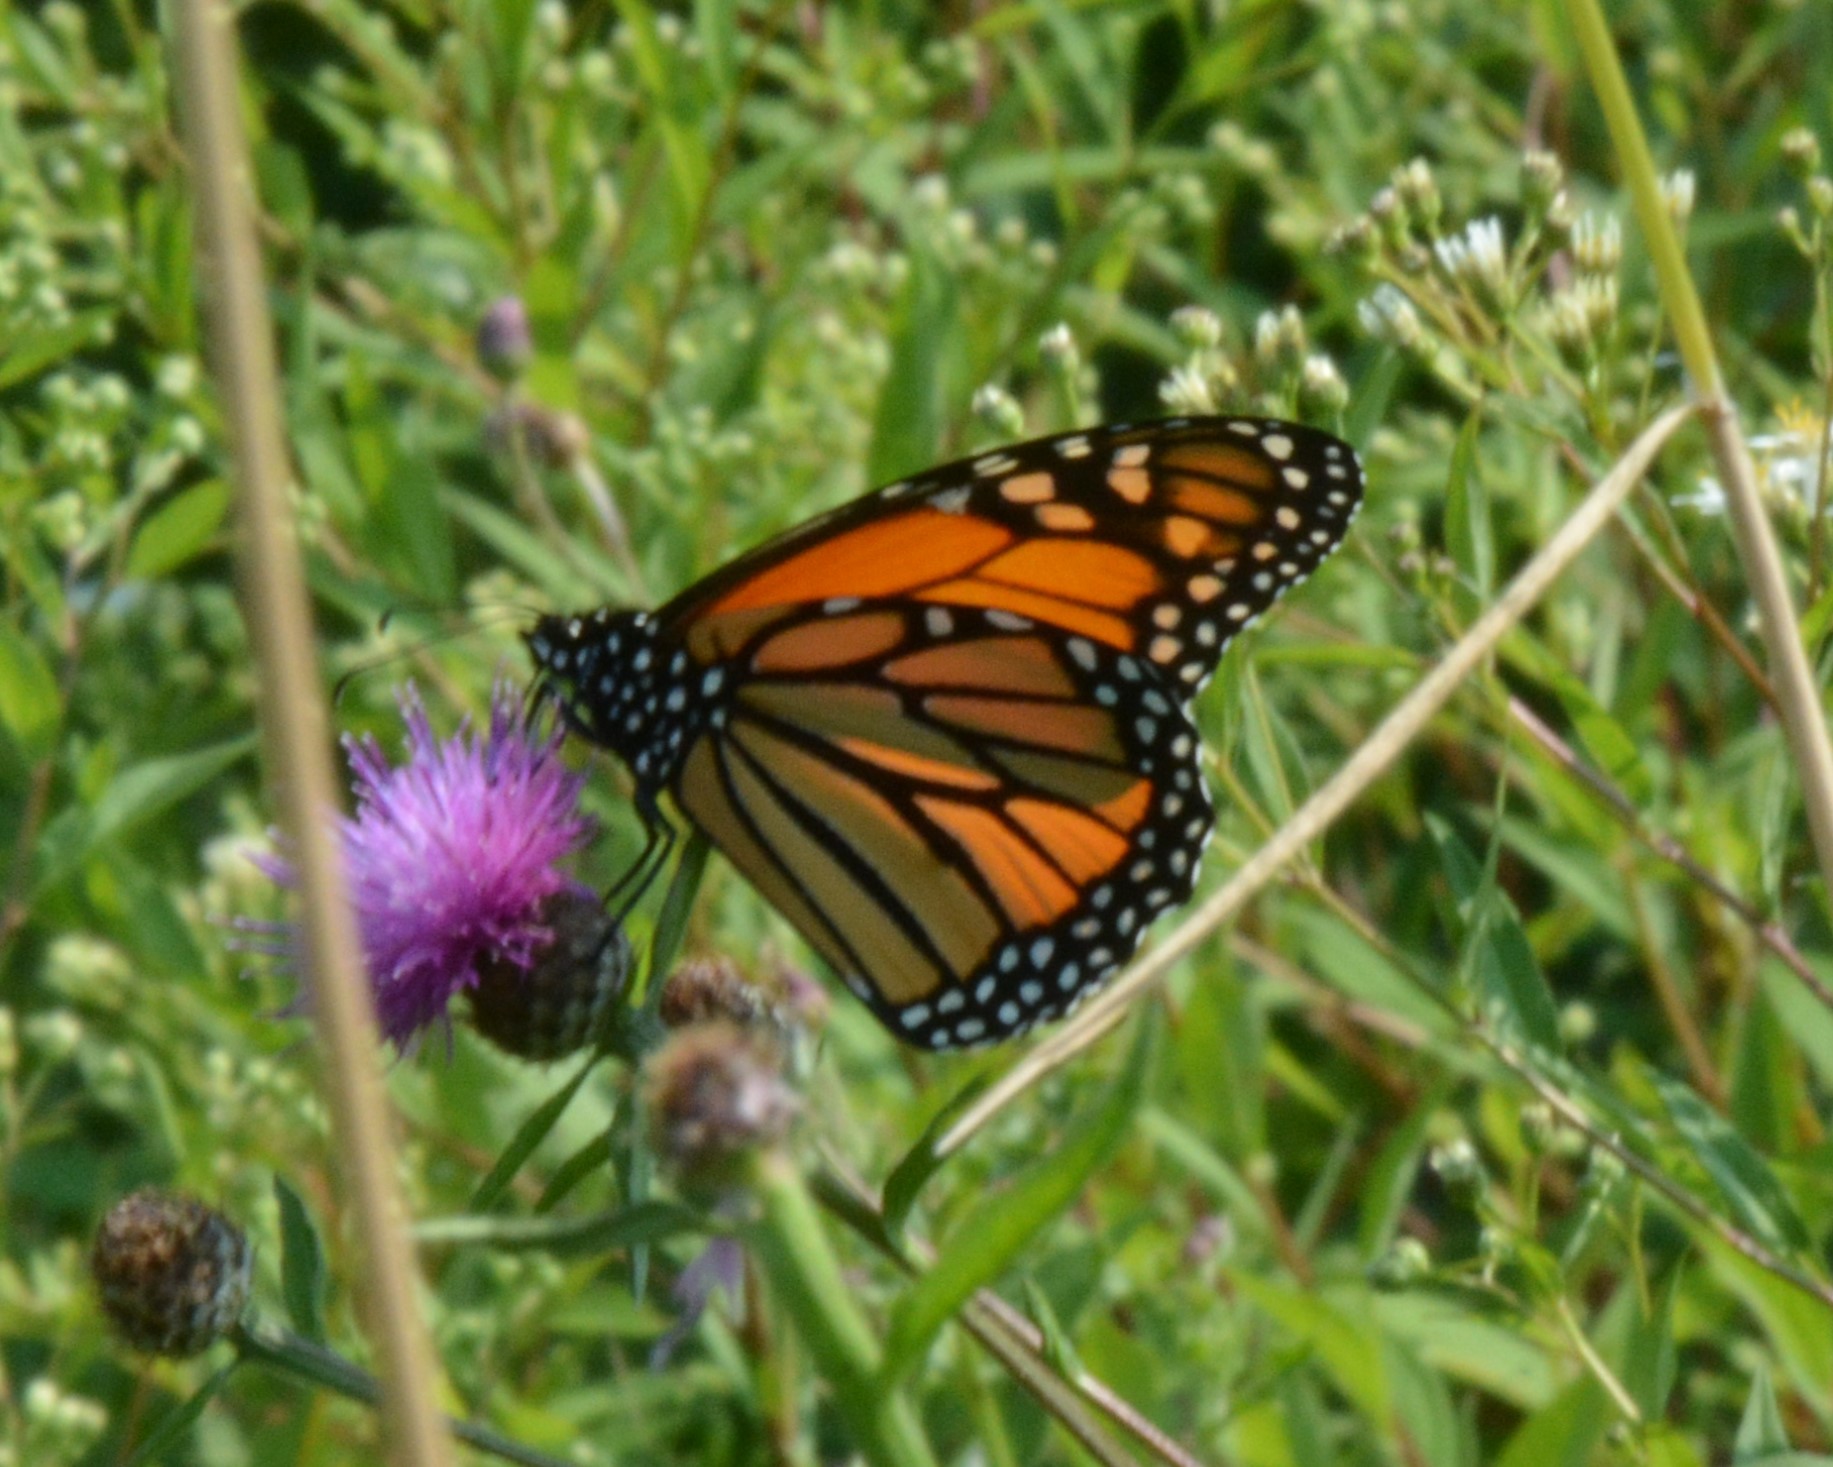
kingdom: Animalia
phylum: Arthropoda
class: Insecta
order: Lepidoptera
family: Nymphalidae
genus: Danaus
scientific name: Danaus plexippus
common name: Monarch
